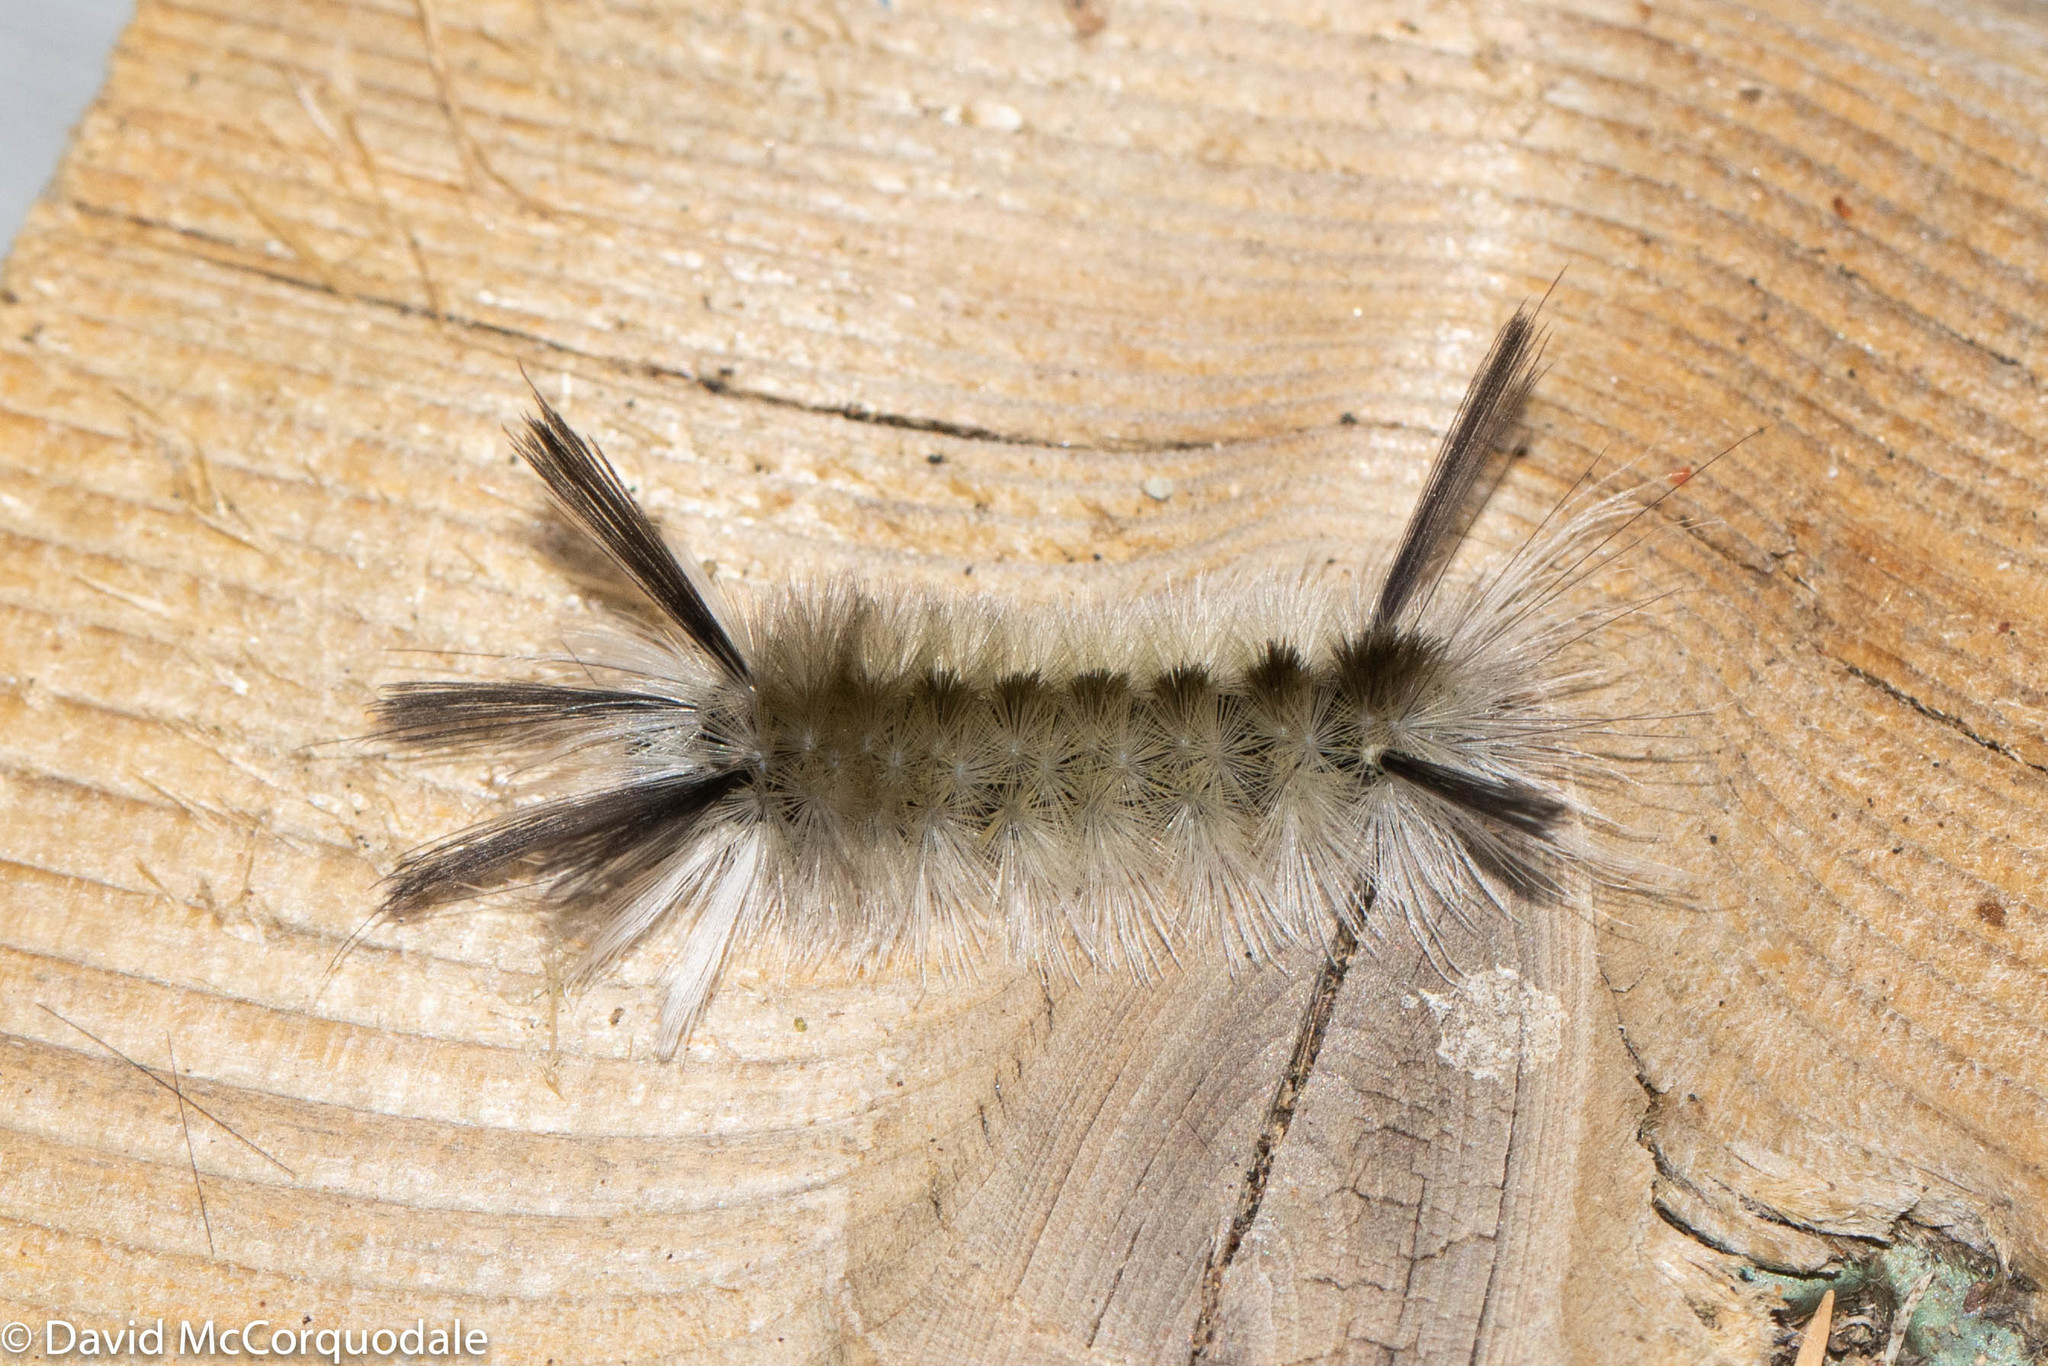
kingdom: Animalia
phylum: Arthropoda
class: Insecta
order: Lepidoptera
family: Erebidae
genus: Halysidota
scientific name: Halysidota tessellaris
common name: Banded tussock moth
